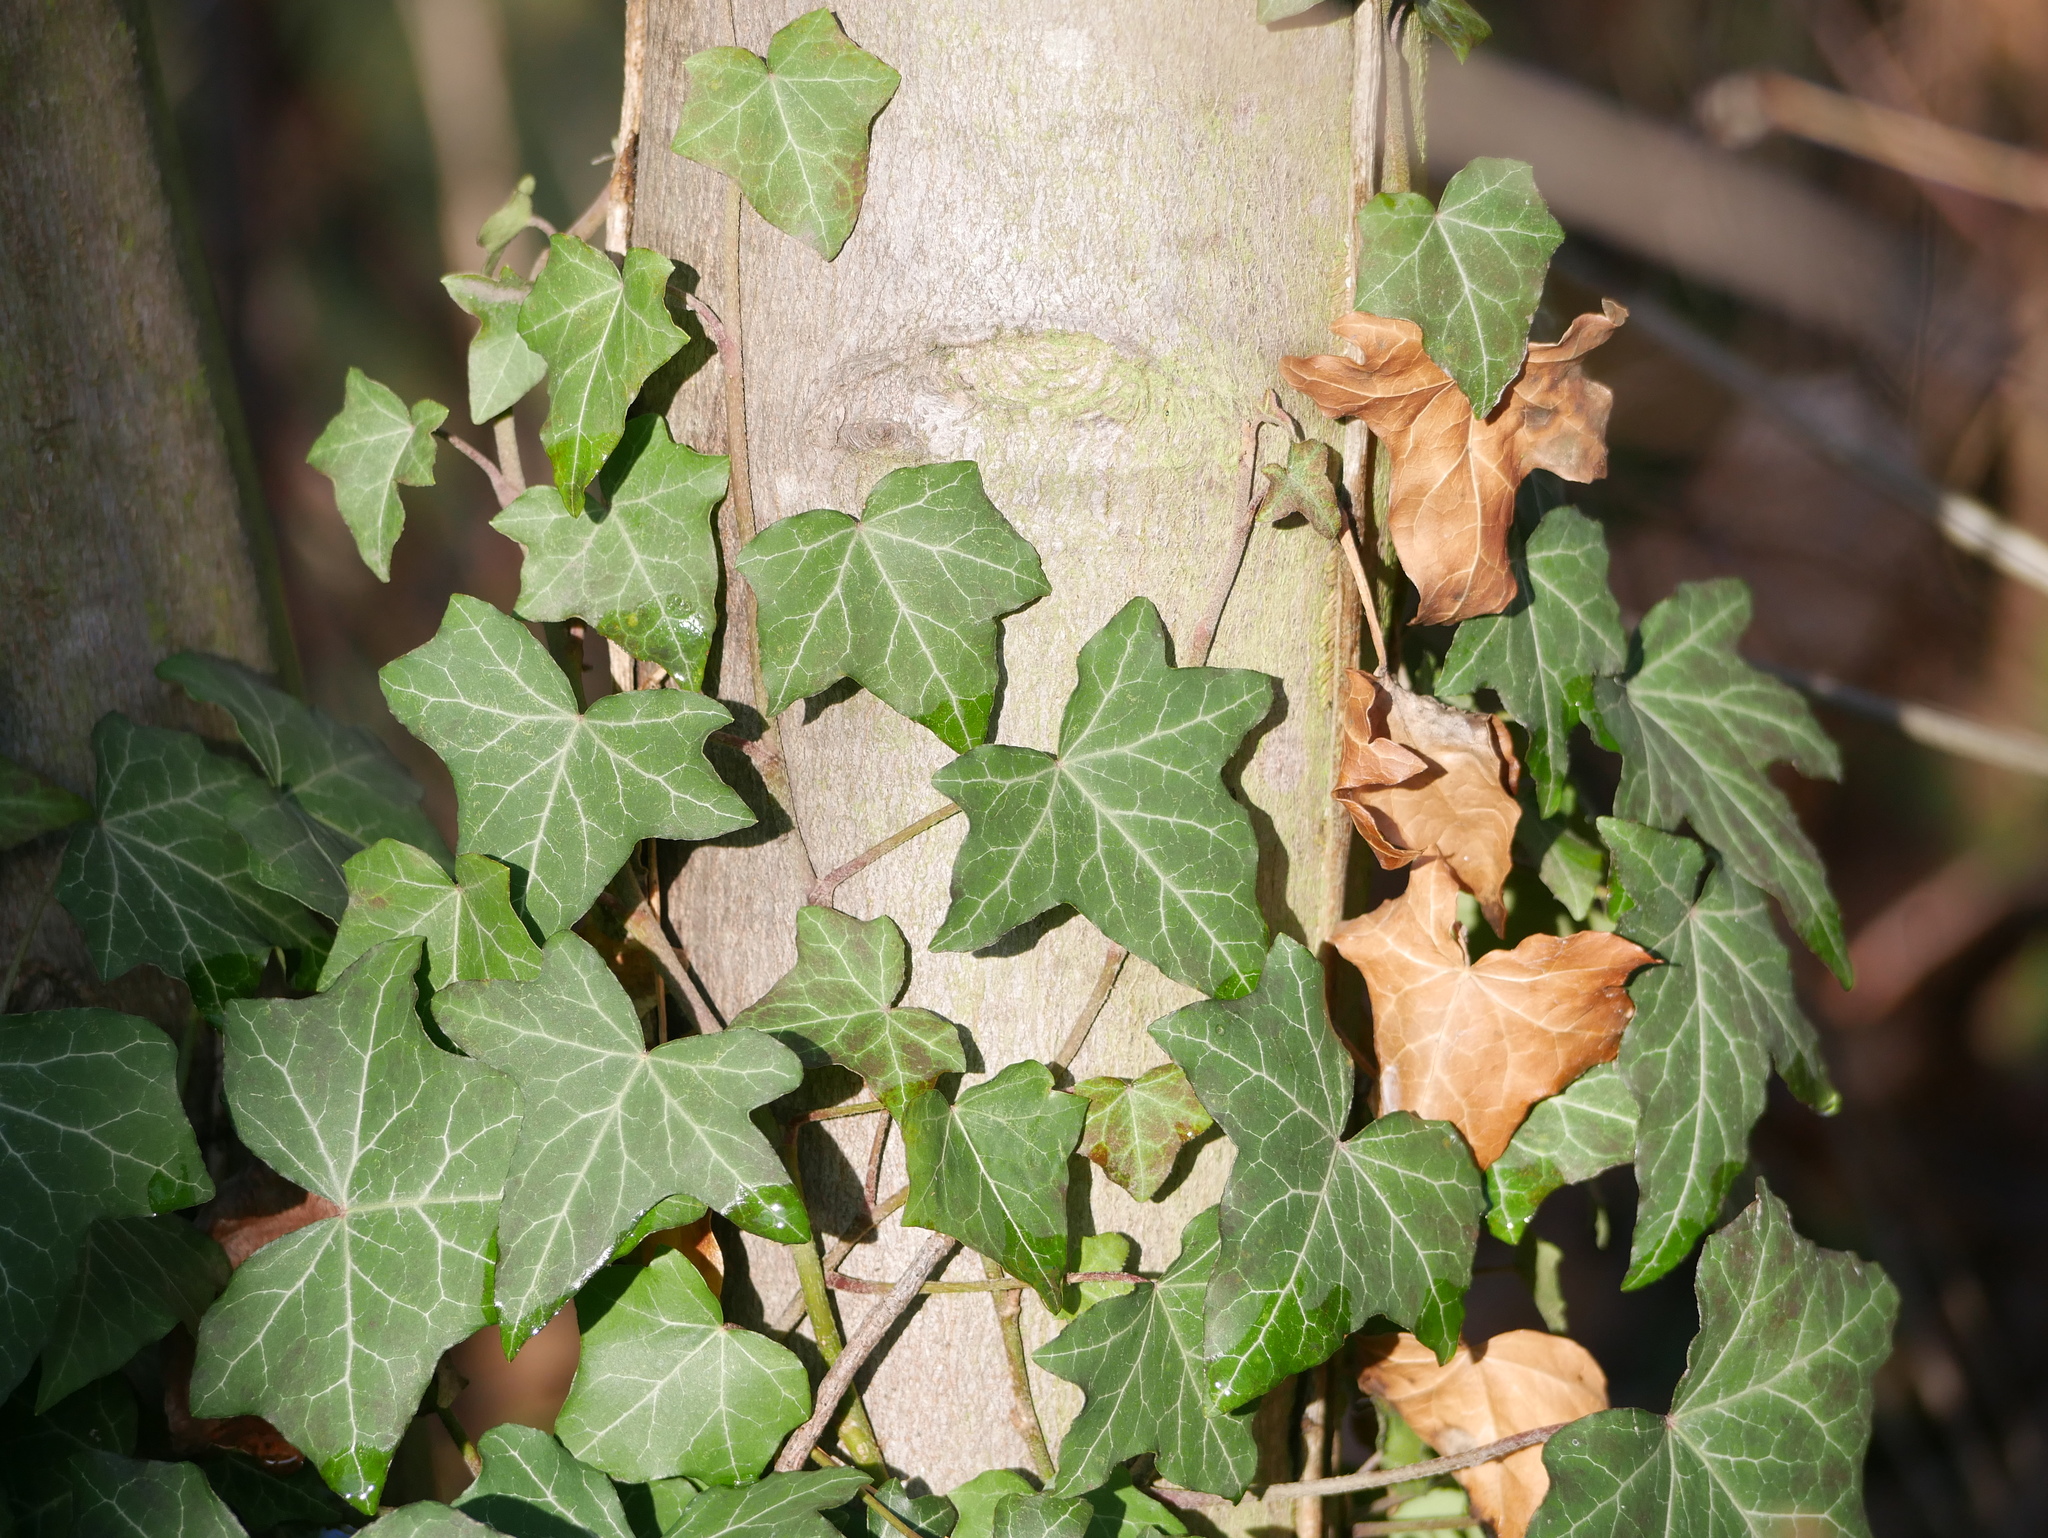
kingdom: Plantae
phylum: Tracheophyta
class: Magnoliopsida
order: Apiales
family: Araliaceae
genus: Hedera
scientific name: Hedera helix
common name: Ivy
